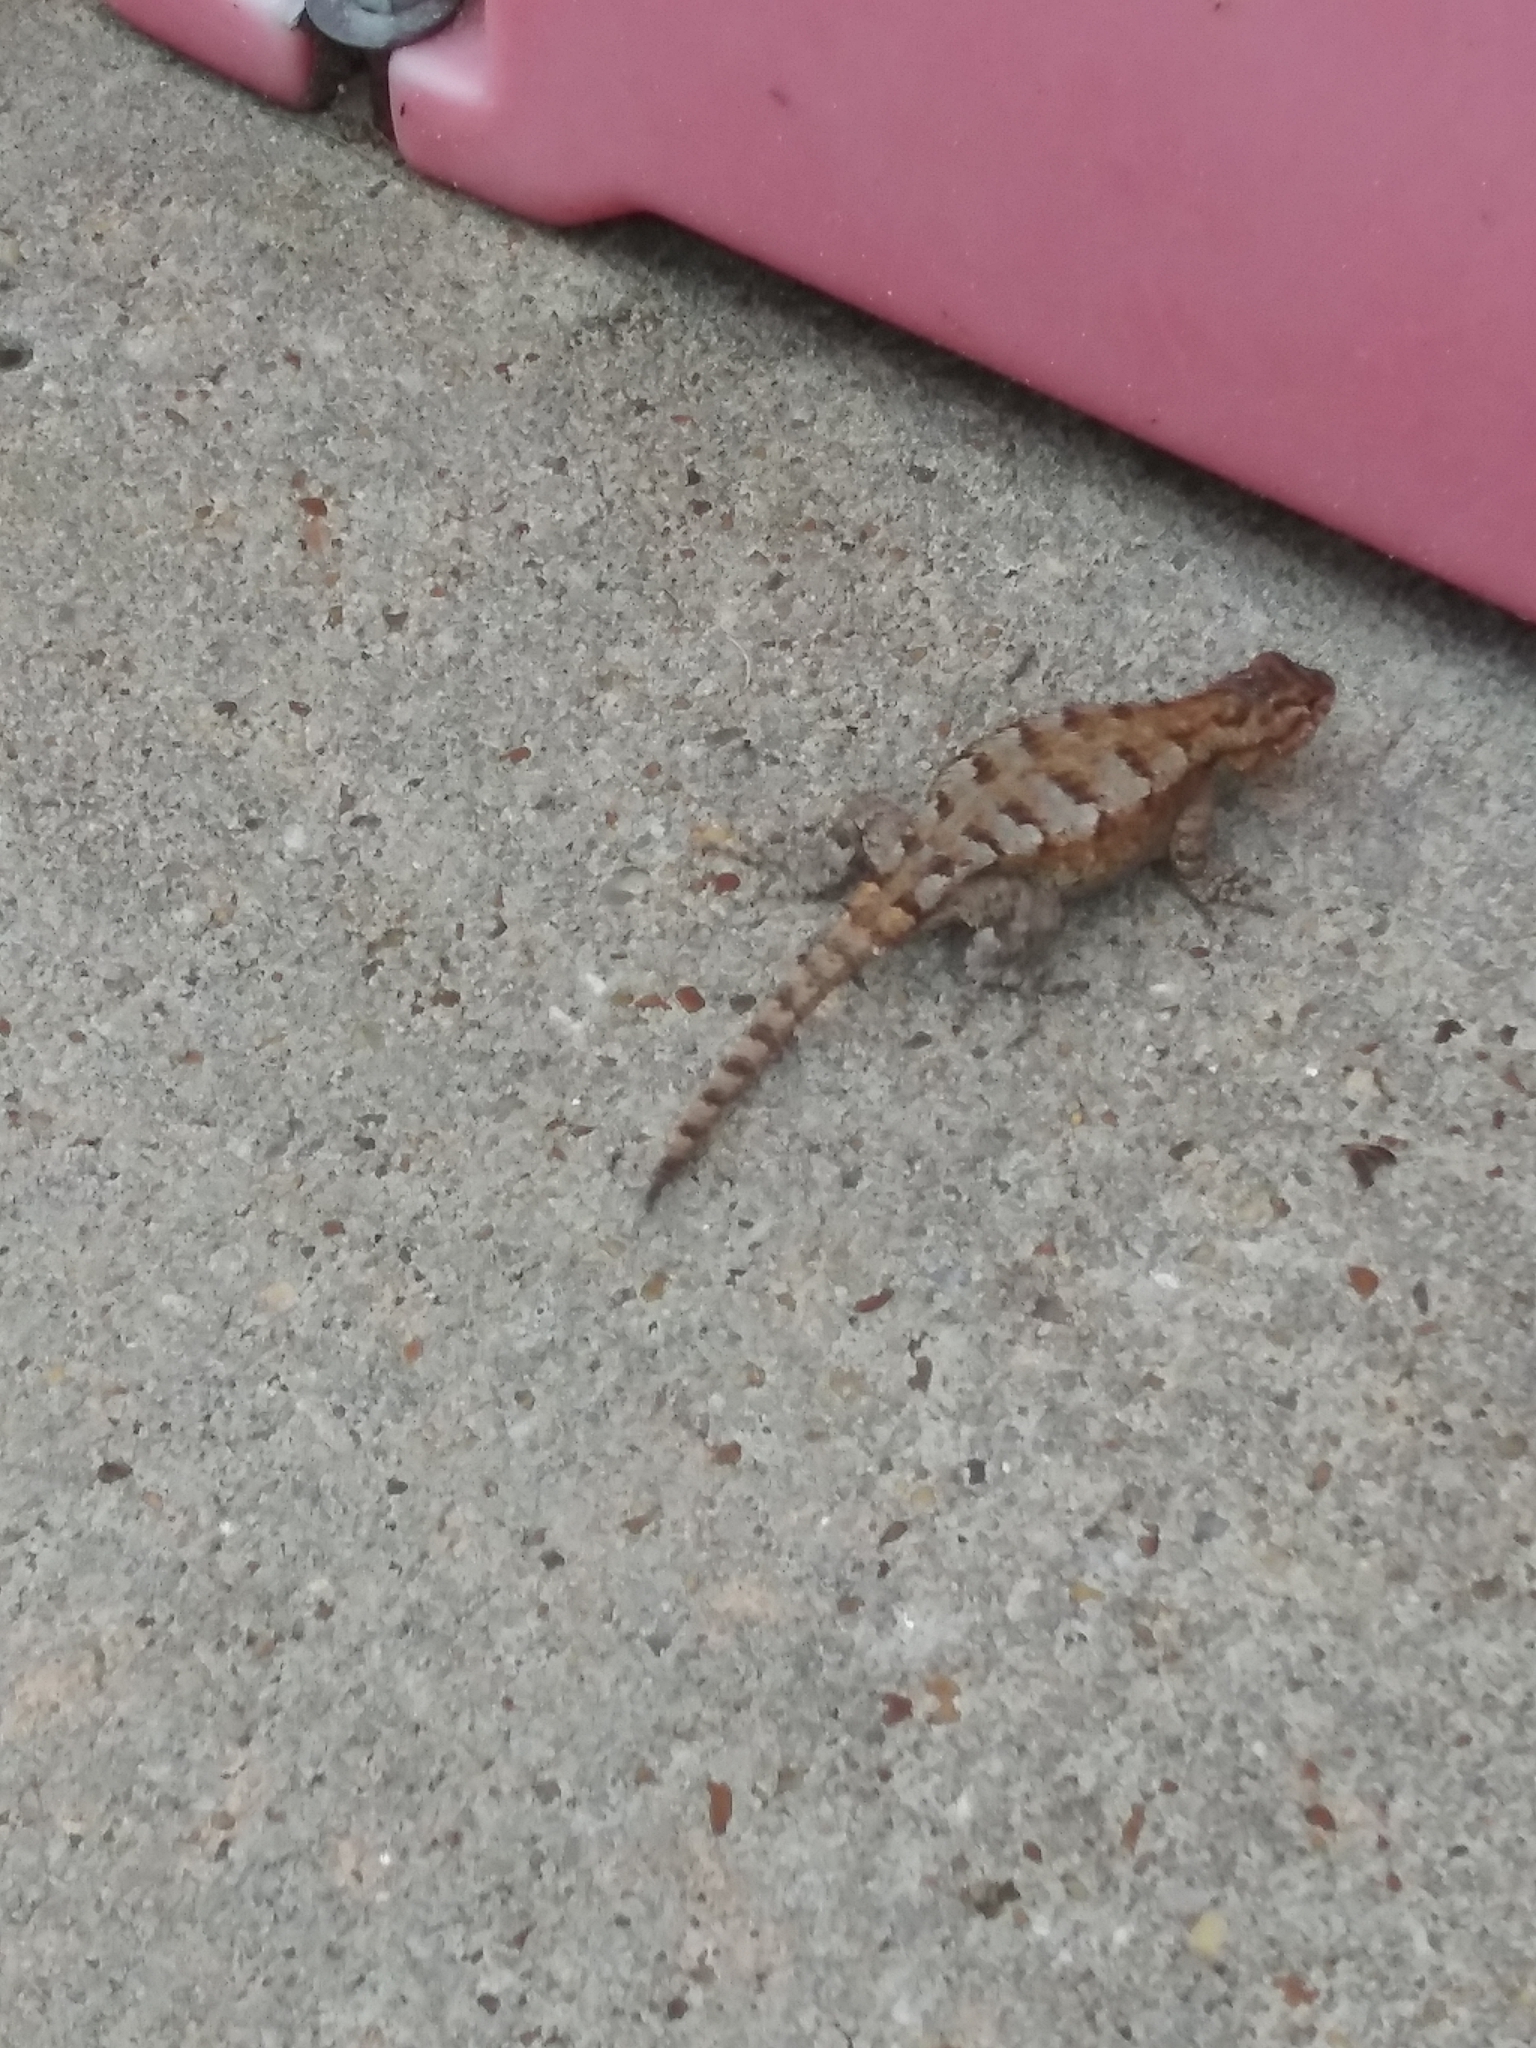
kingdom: Animalia
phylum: Chordata
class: Squamata
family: Phrynosomatidae
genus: Sceloporus
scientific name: Sceloporus undulatus
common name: Eastern fence lizard
